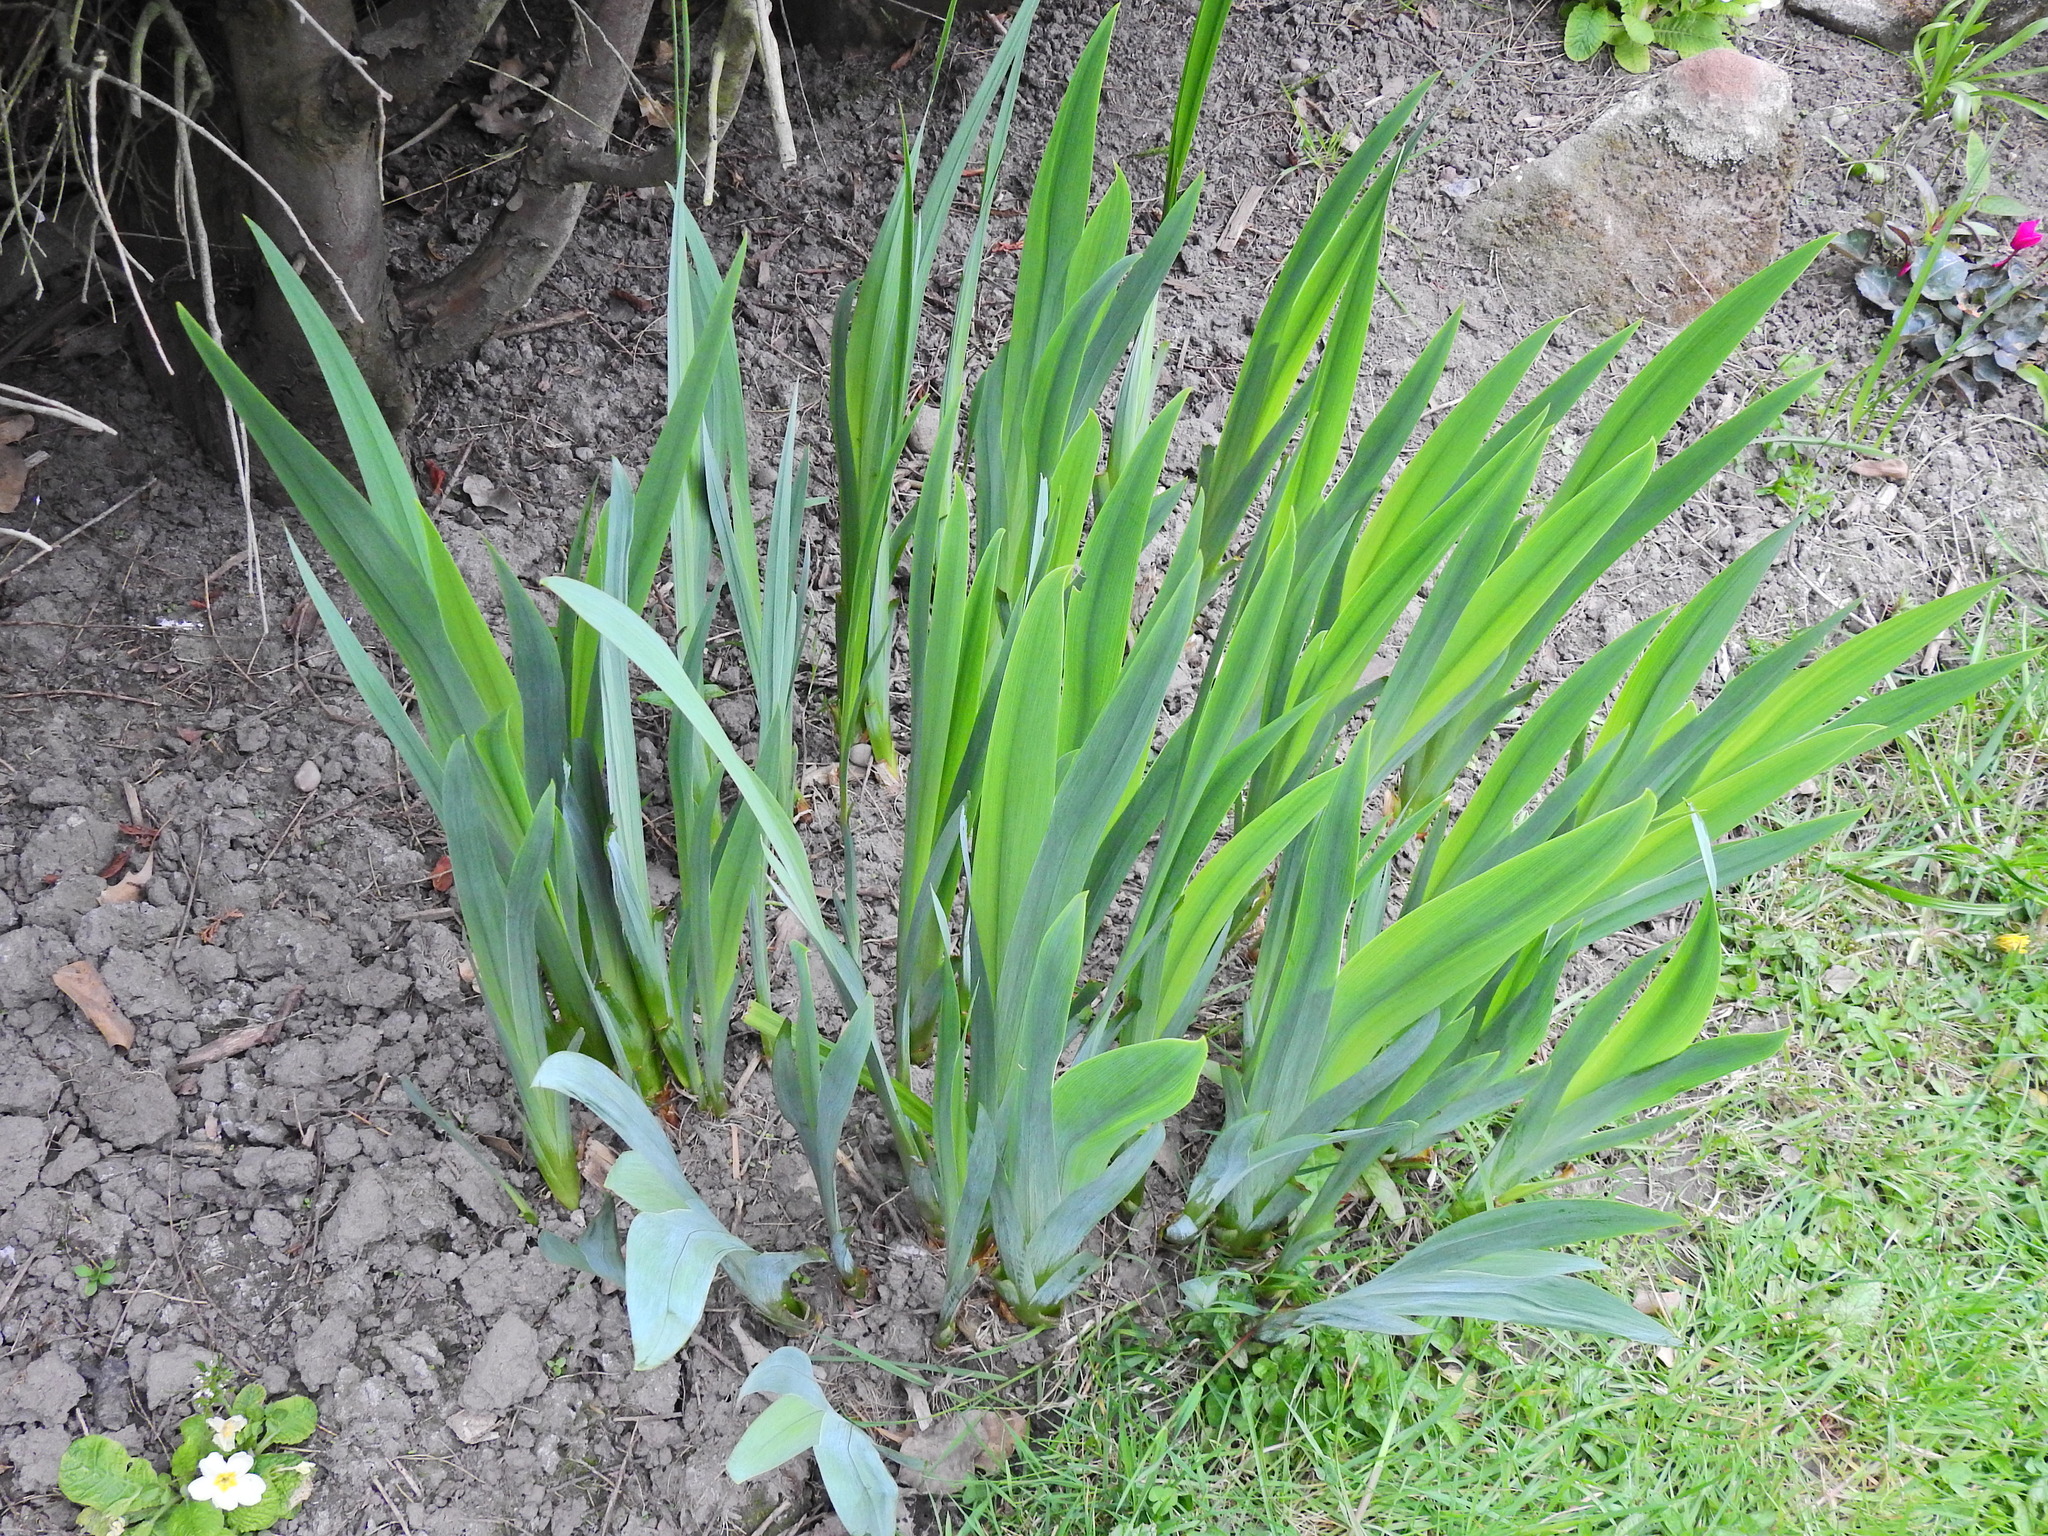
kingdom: Plantae
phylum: Tracheophyta
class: Liliopsida
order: Asparagales
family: Iridaceae
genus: Iris
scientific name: Iris pseudacorus
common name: Yellow flag
